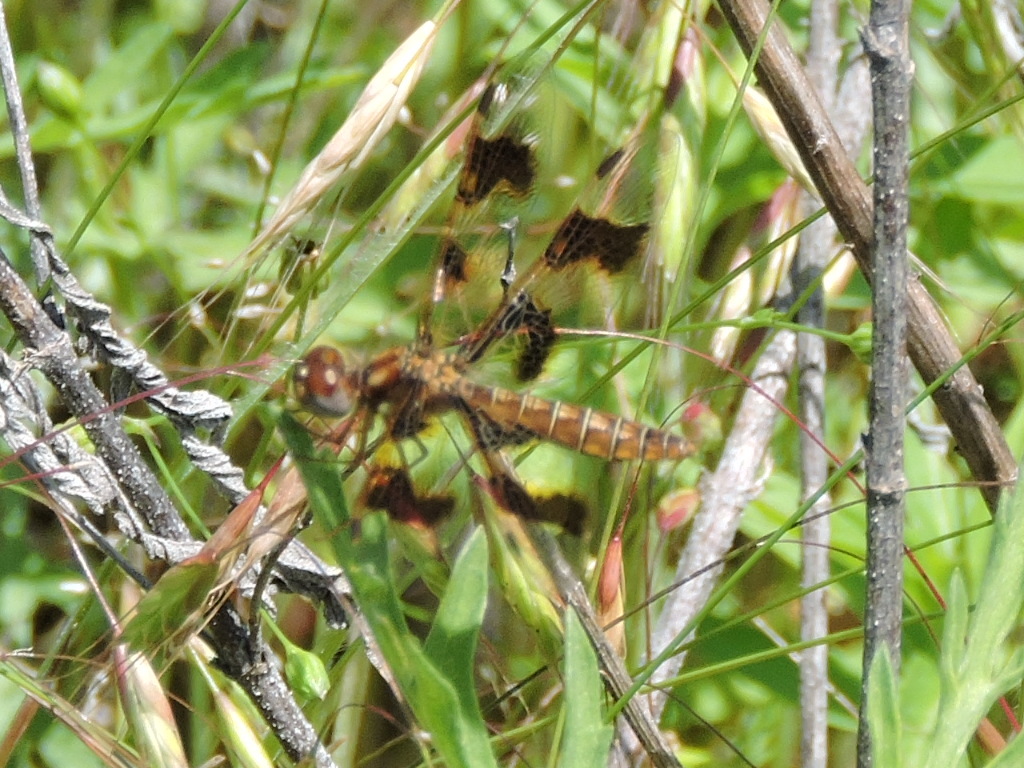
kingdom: Animalia
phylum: Arthropoda
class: Insecta
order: Odonata
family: Libellulidae
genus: Perithemis
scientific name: Perithemis tenera
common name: Eastern amberwing
